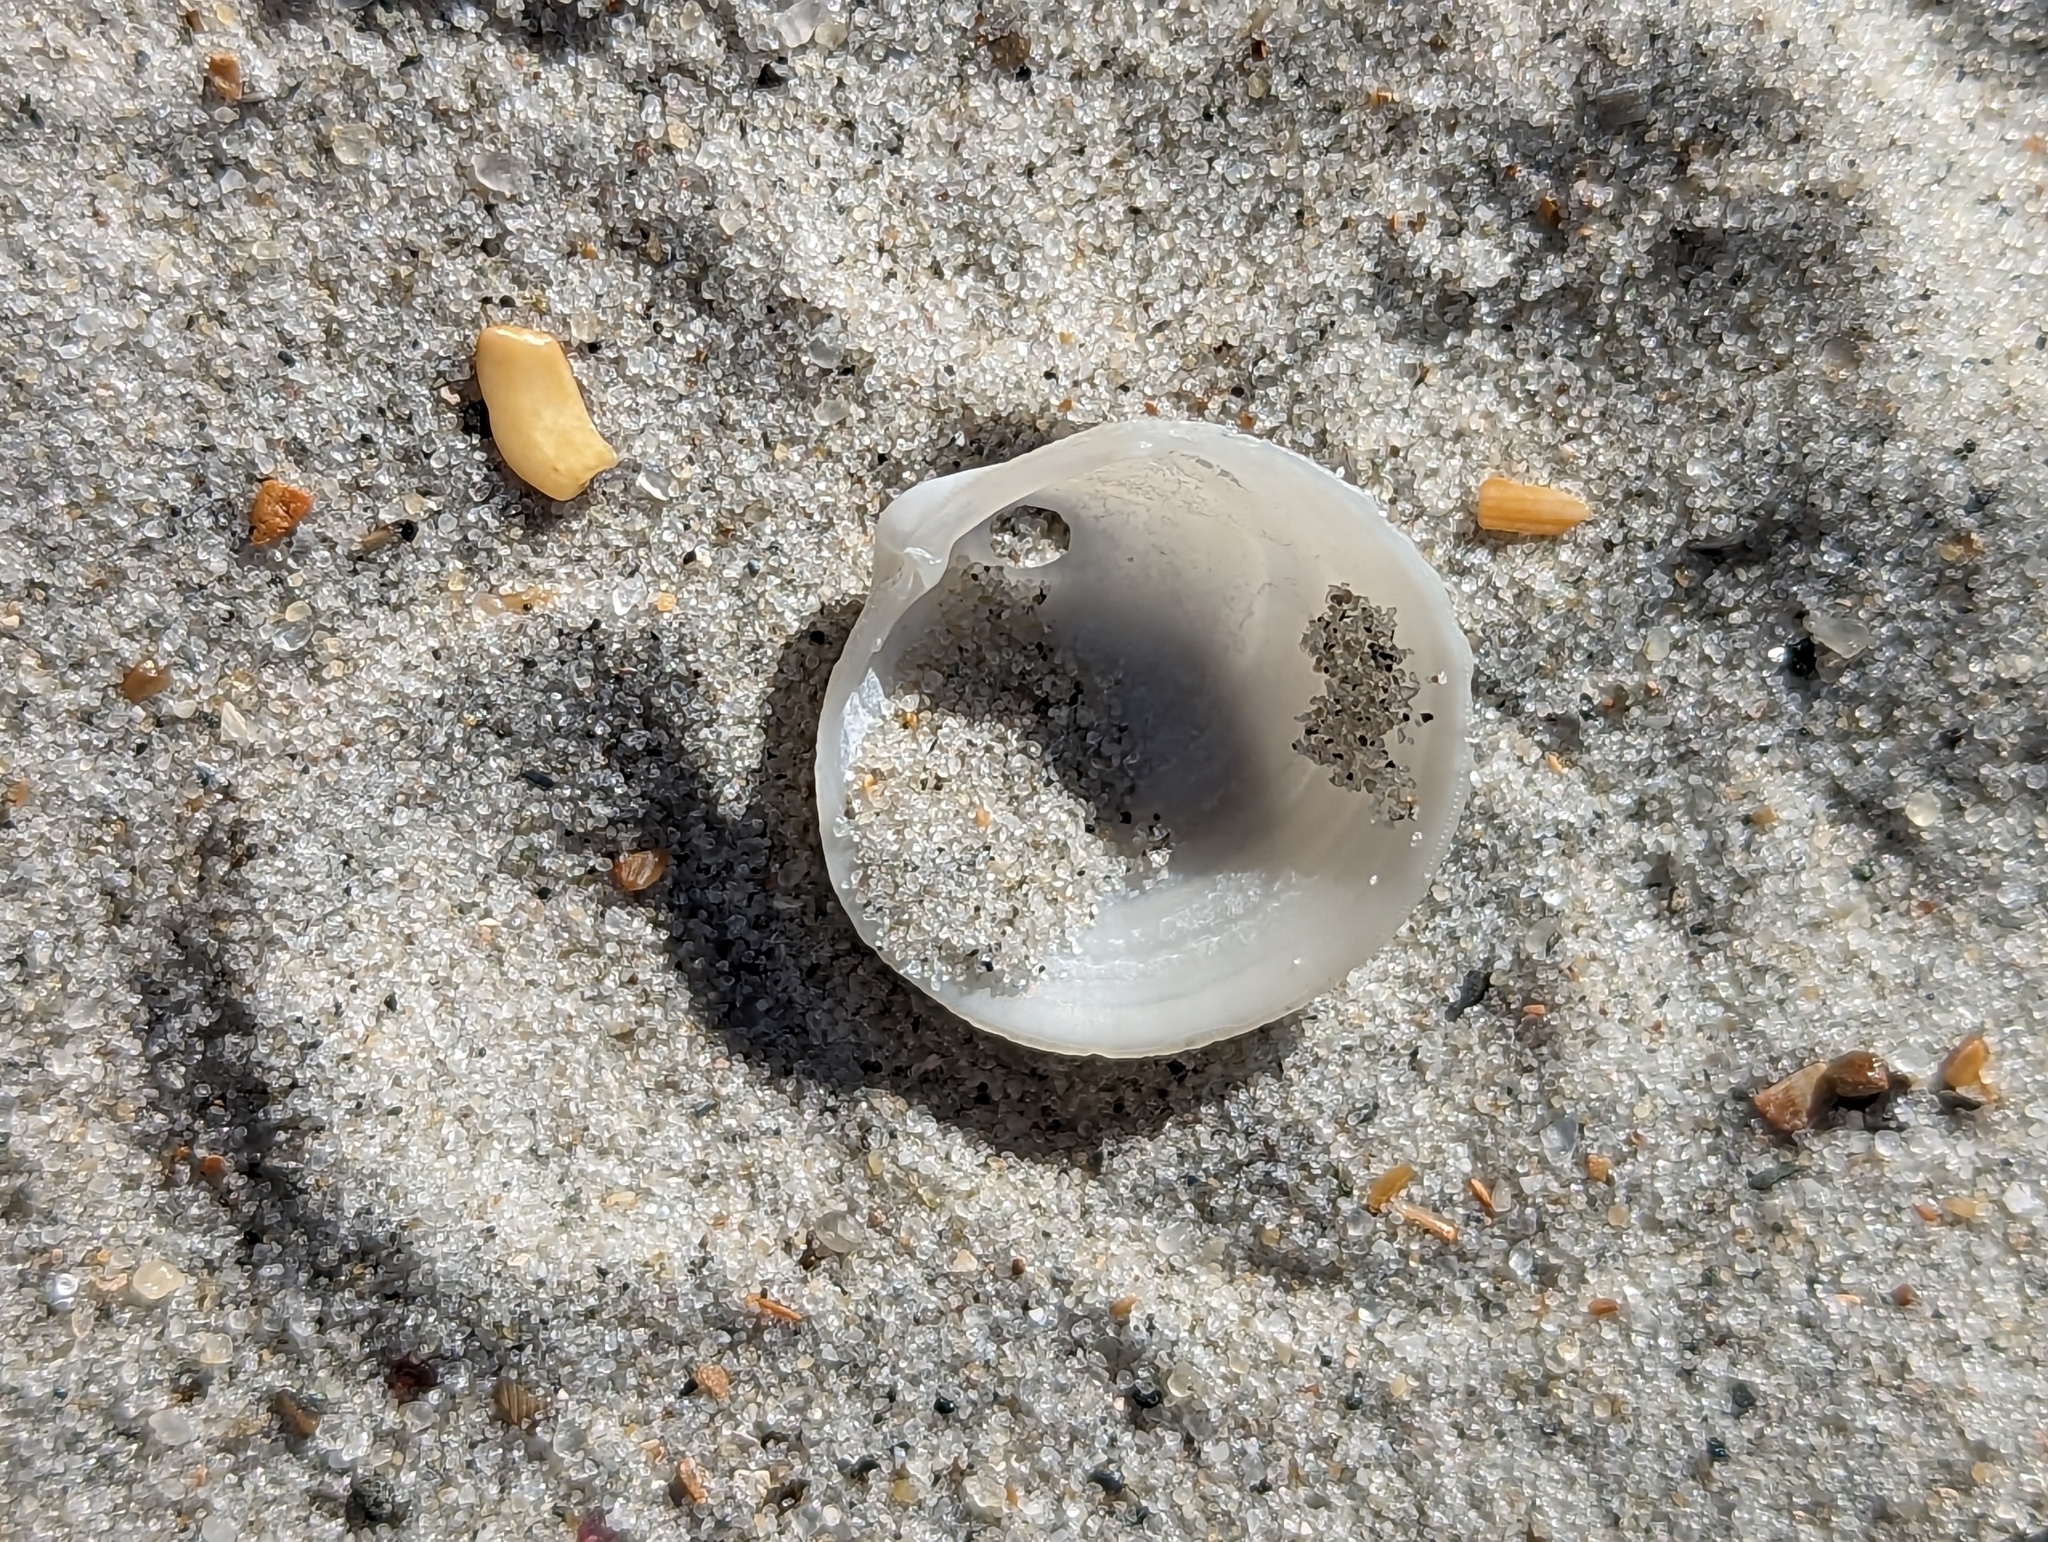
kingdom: Animalia
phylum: Mollusca
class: Bivalvia
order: Lucinida
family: Lucinidae
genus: Divalinga
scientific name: Divalinga quadrisulcata
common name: Cross-hatched lucine
